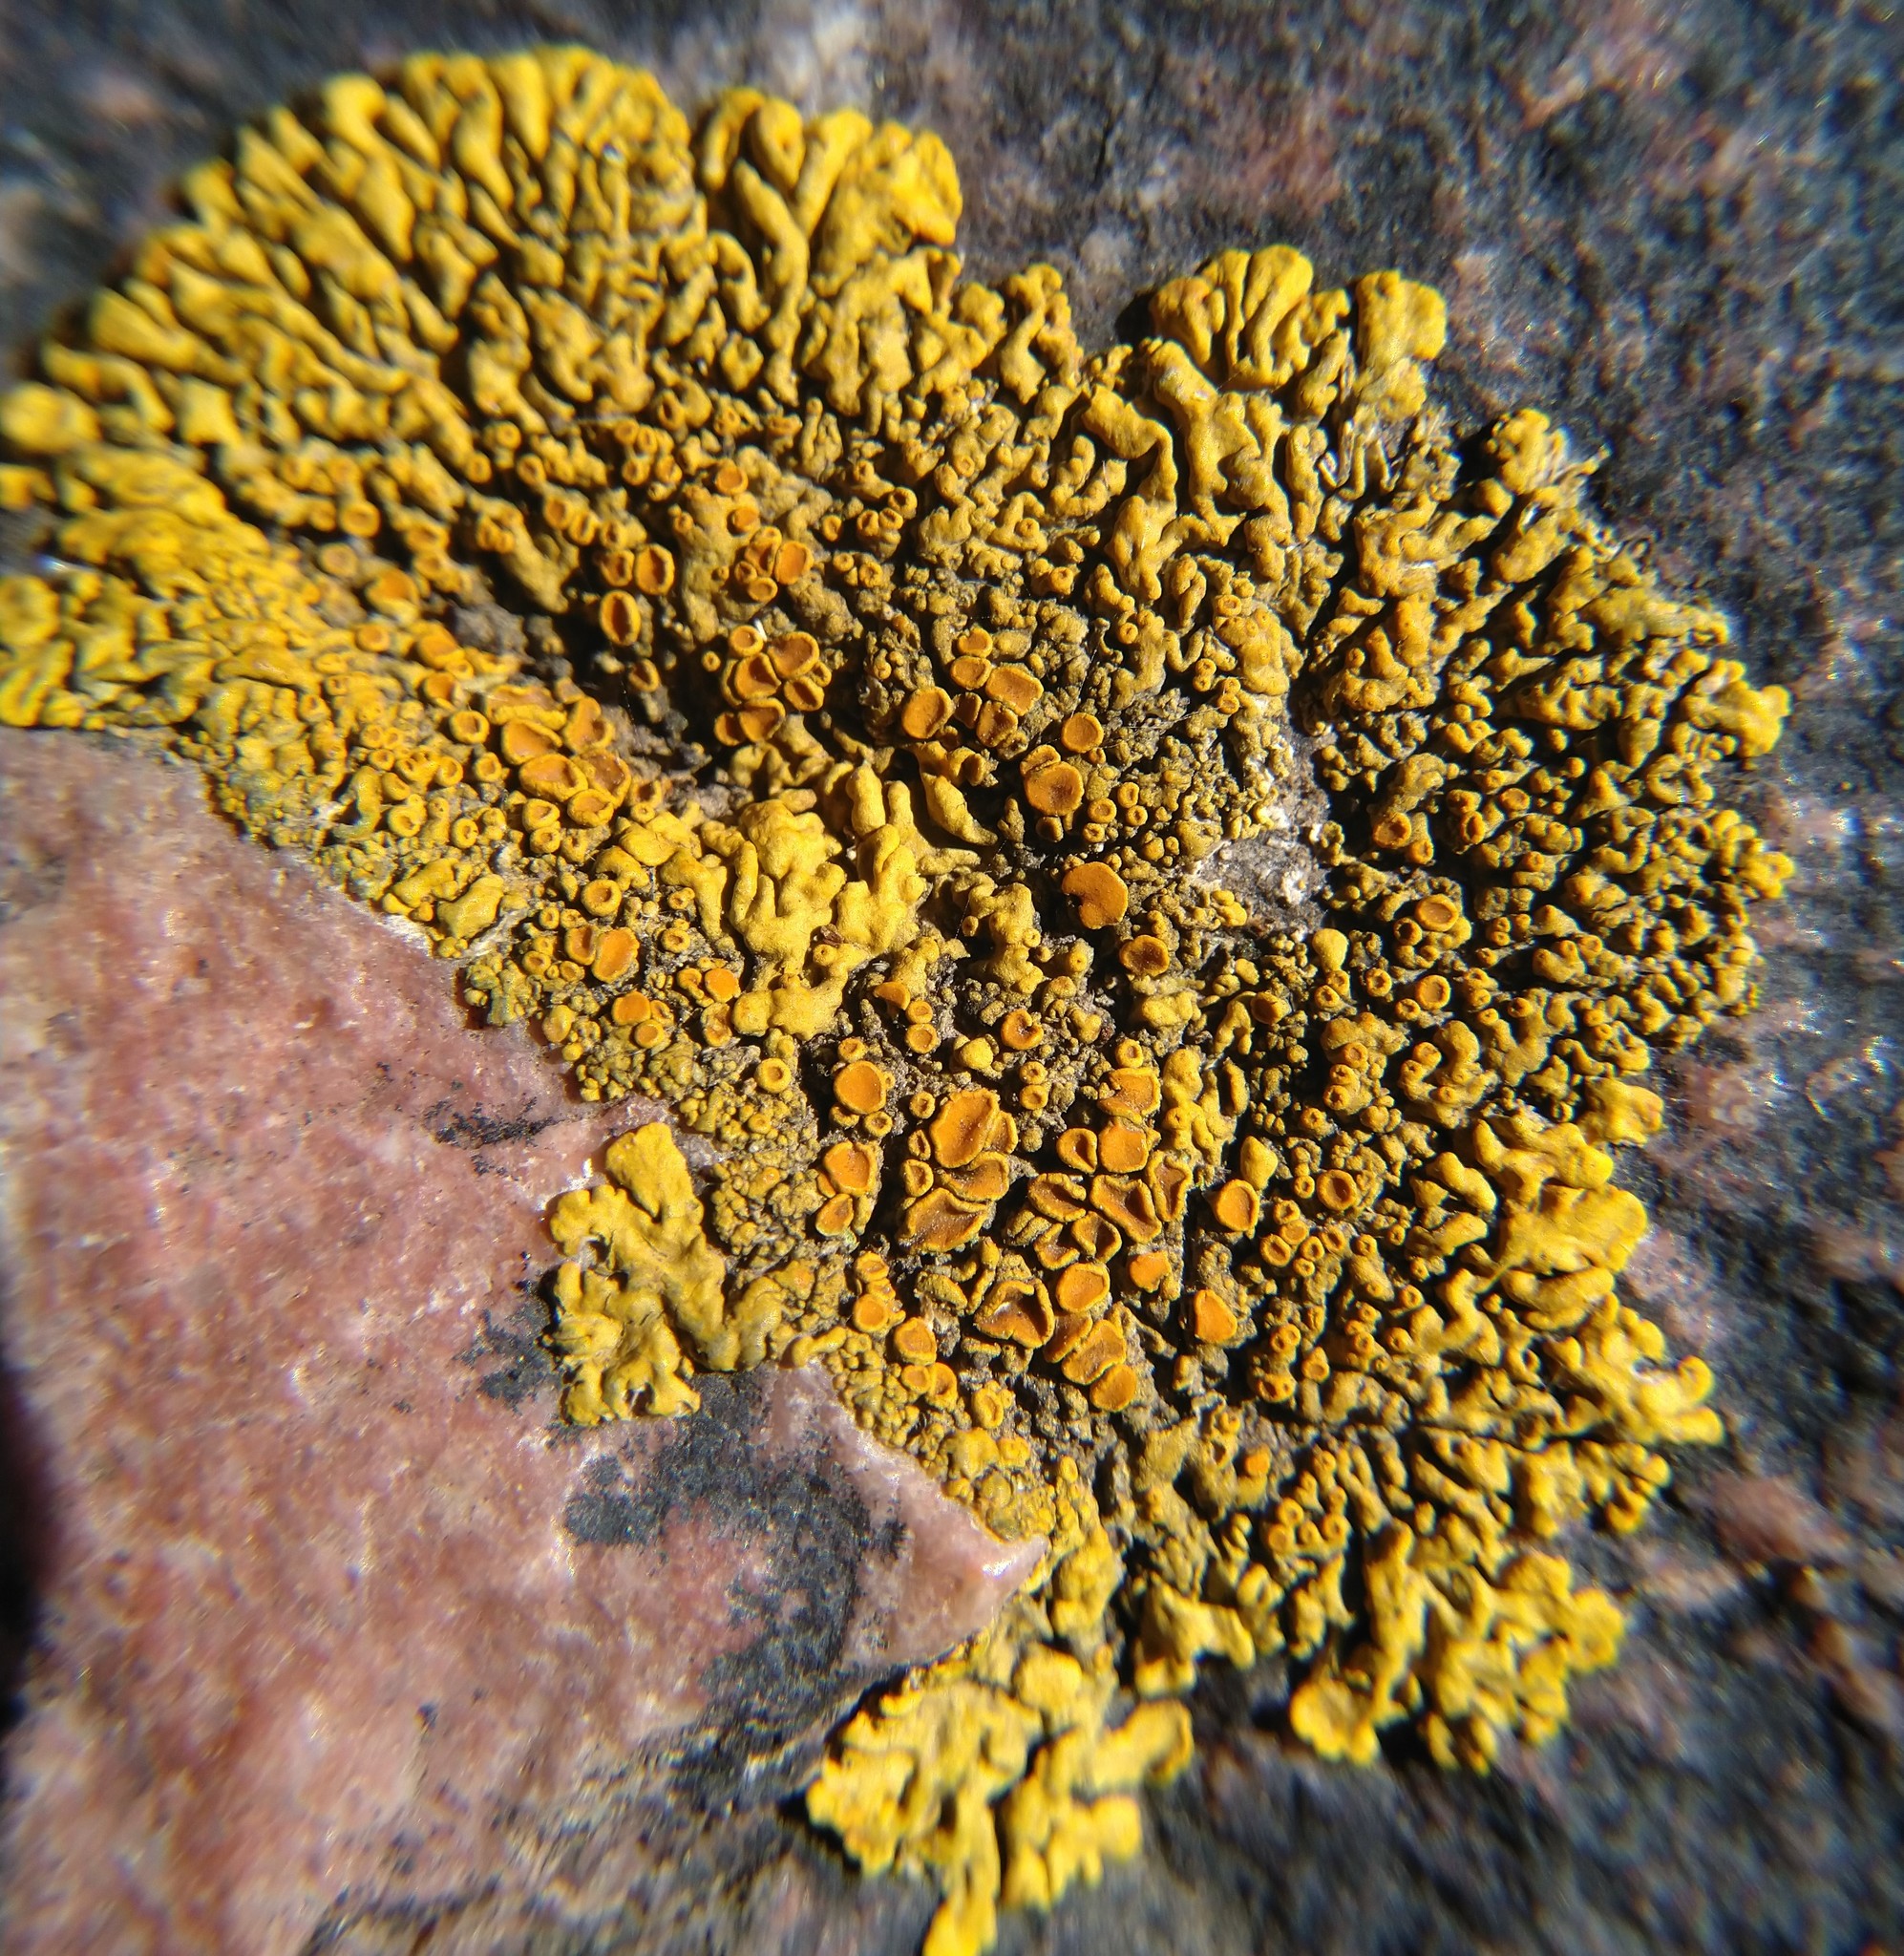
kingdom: Fungi
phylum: Ascomycota
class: Lecanoromycetes
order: Teloschistales
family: Teloschistaceae
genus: Xanthoria
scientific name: Xanthoria elegans
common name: Elegant sunburst lichen
